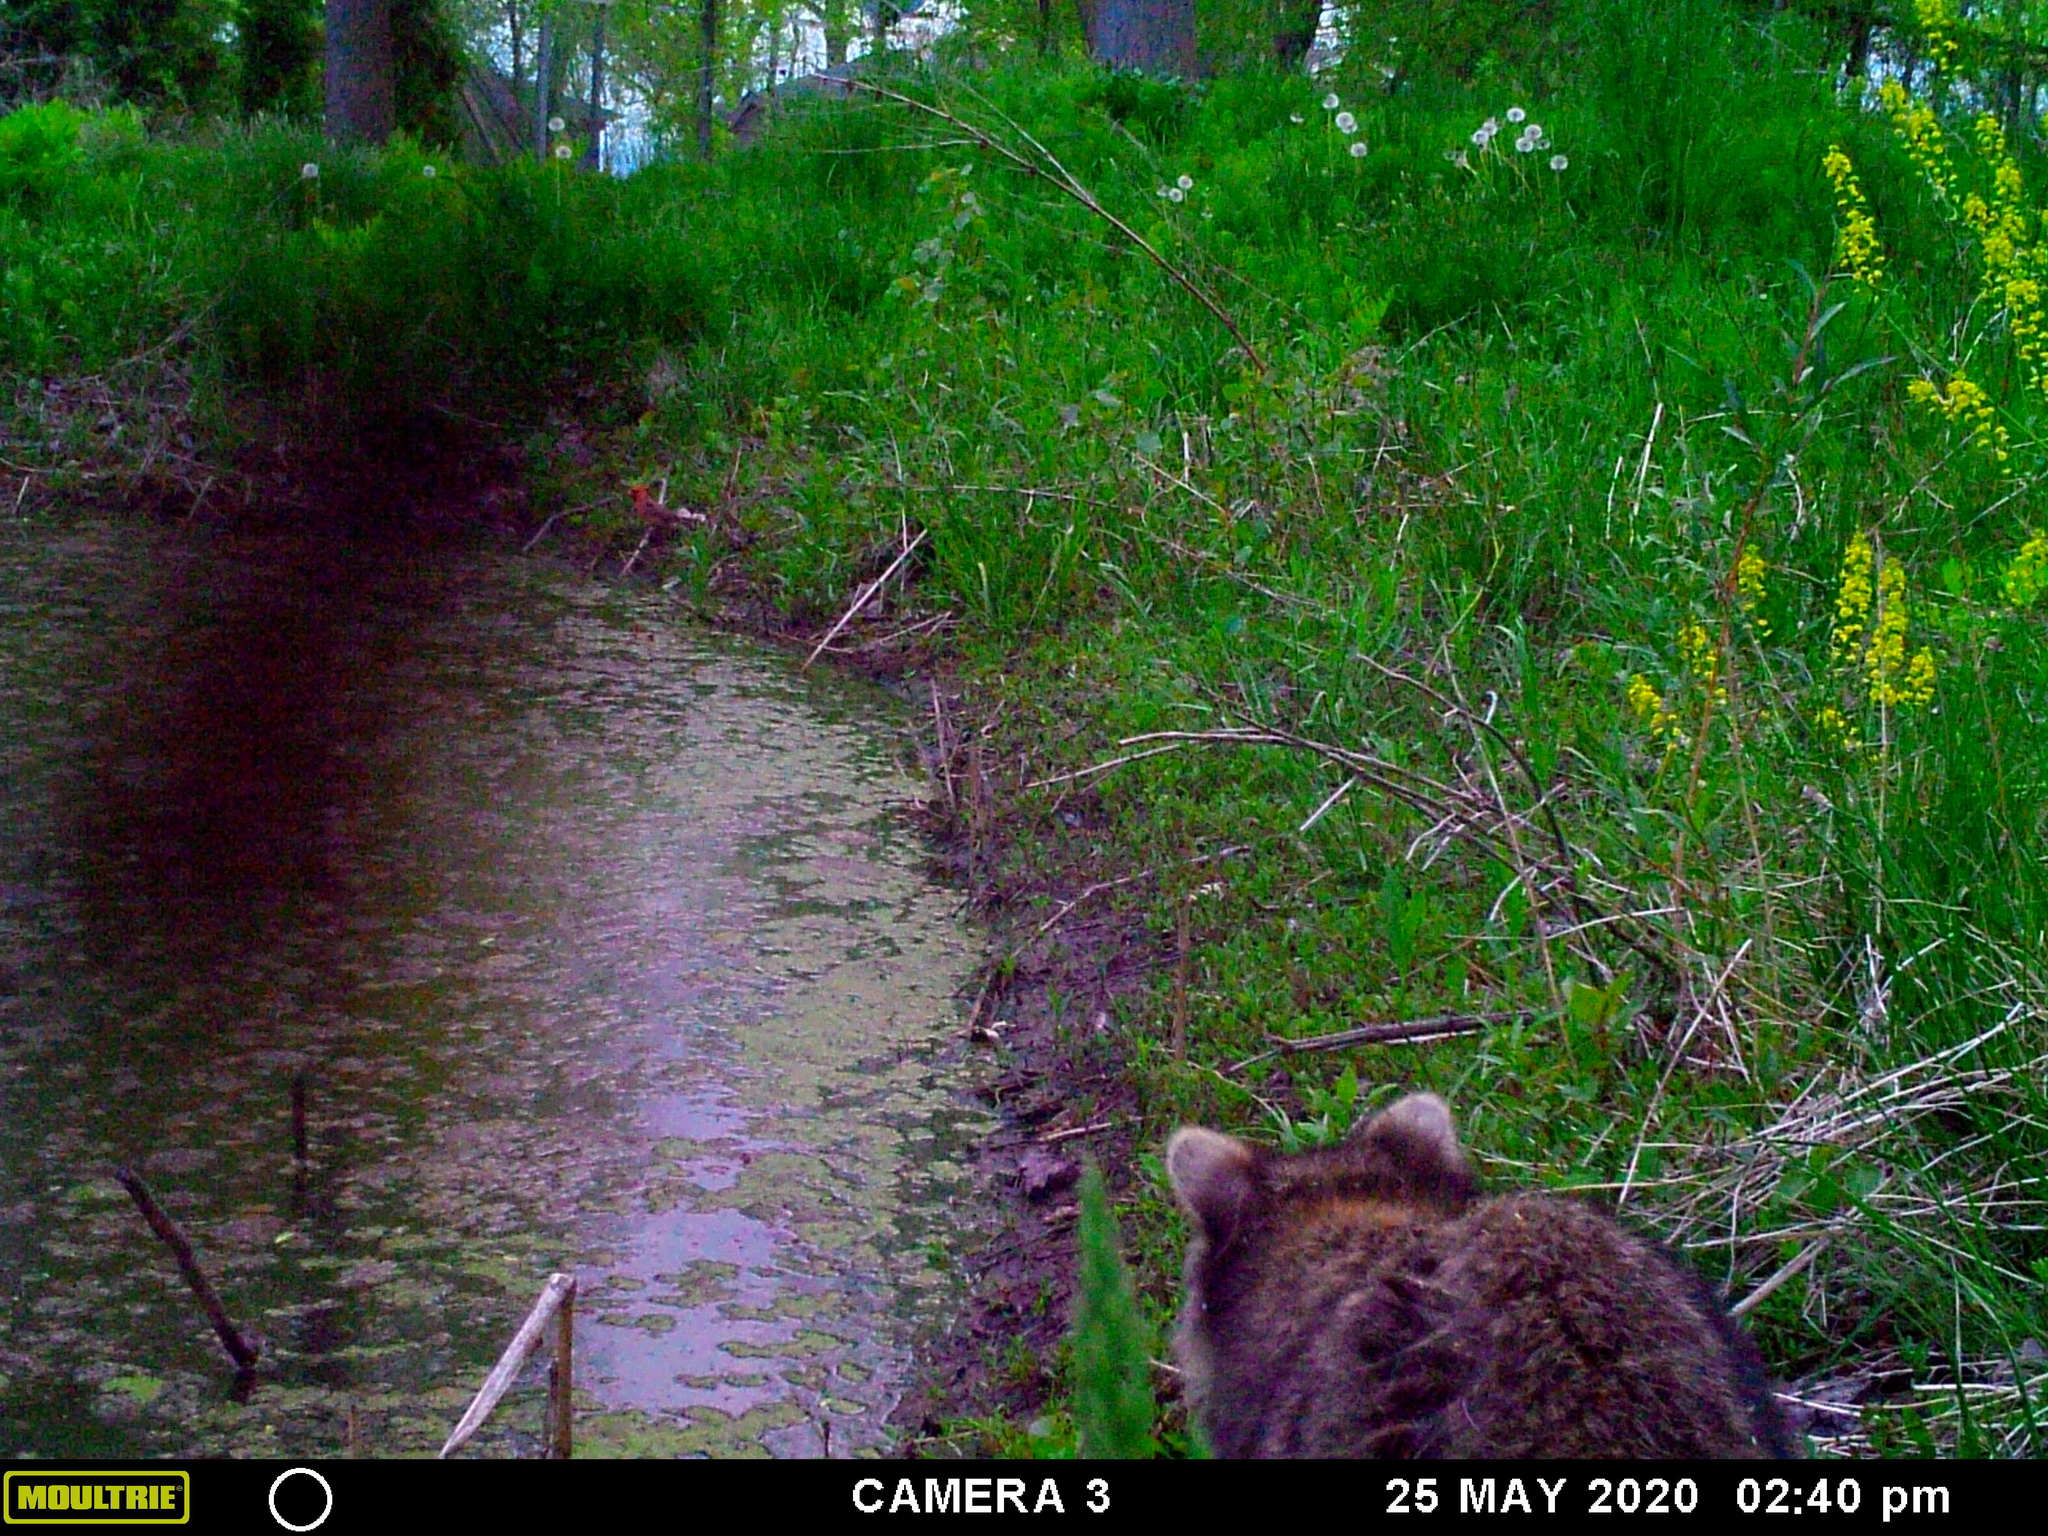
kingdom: Animalia
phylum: Chordata
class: Aves
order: Passeriformes
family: Cardinalidae
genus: Cardinalis
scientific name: Cardinalis cardinalis
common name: Northern cardinal
